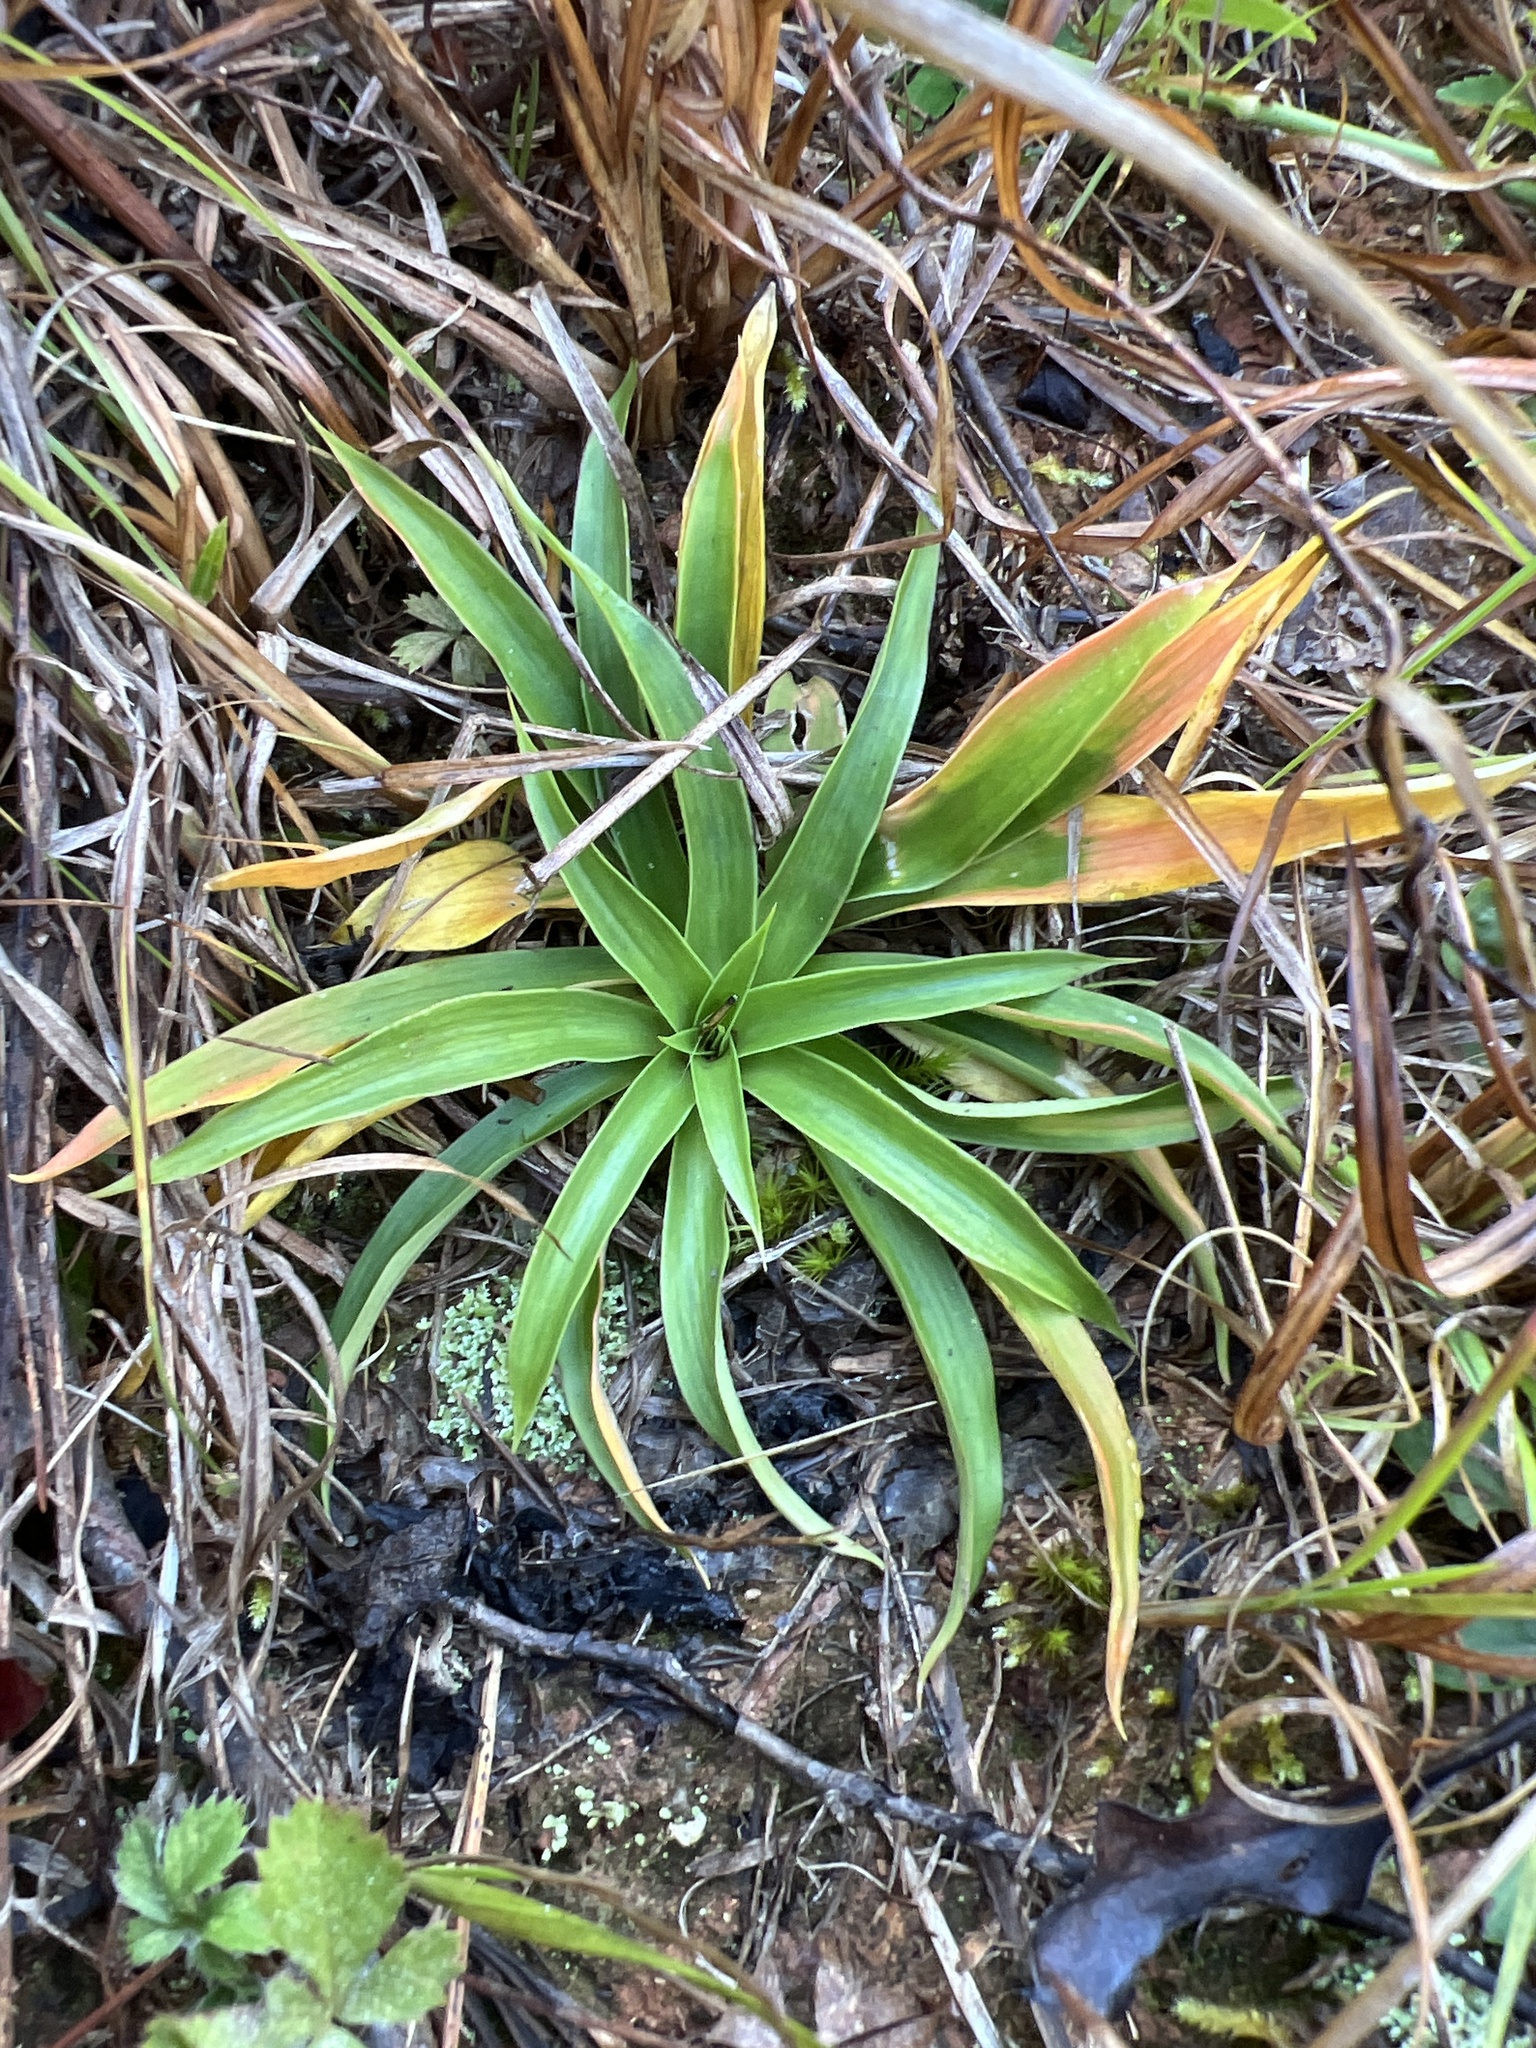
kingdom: Plantae
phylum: Tracheophyta
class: Liliopsida
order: Dioscoreales
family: Nartheciaceae
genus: Aletris
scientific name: Aletris farinosa
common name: Colicroot
